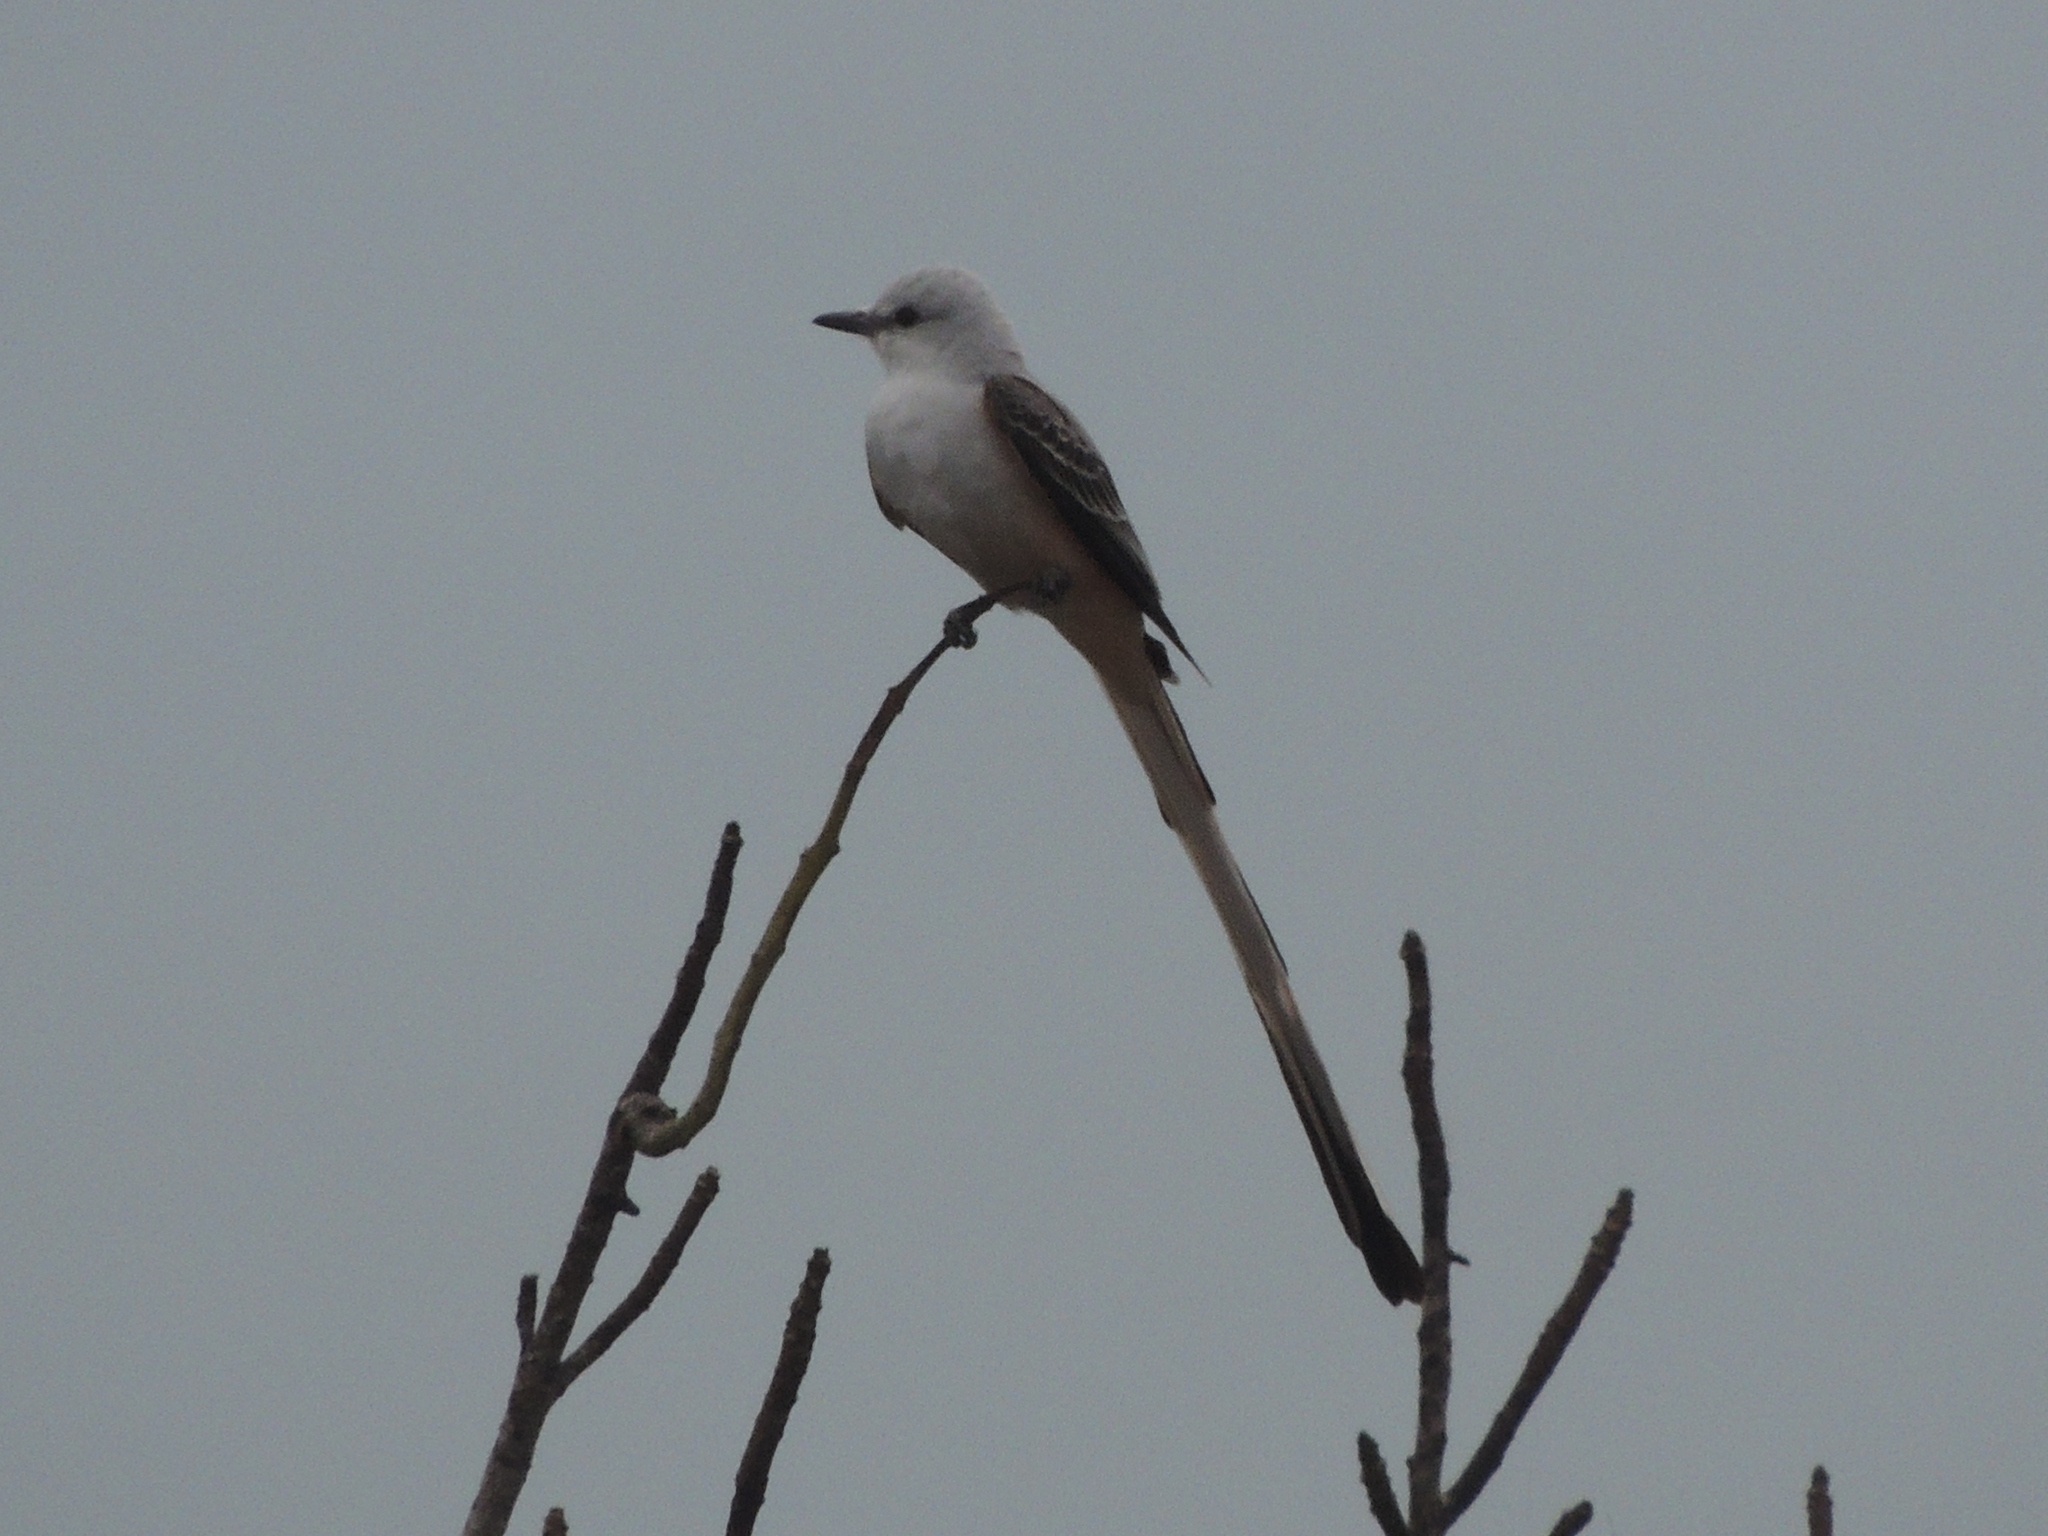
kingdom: Animalia
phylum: Chordata
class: Aves
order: Passeriformes
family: Tyrannidae
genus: Tyrannus
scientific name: Tyrannus forficatus
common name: Scissor-tailed flycatcher
